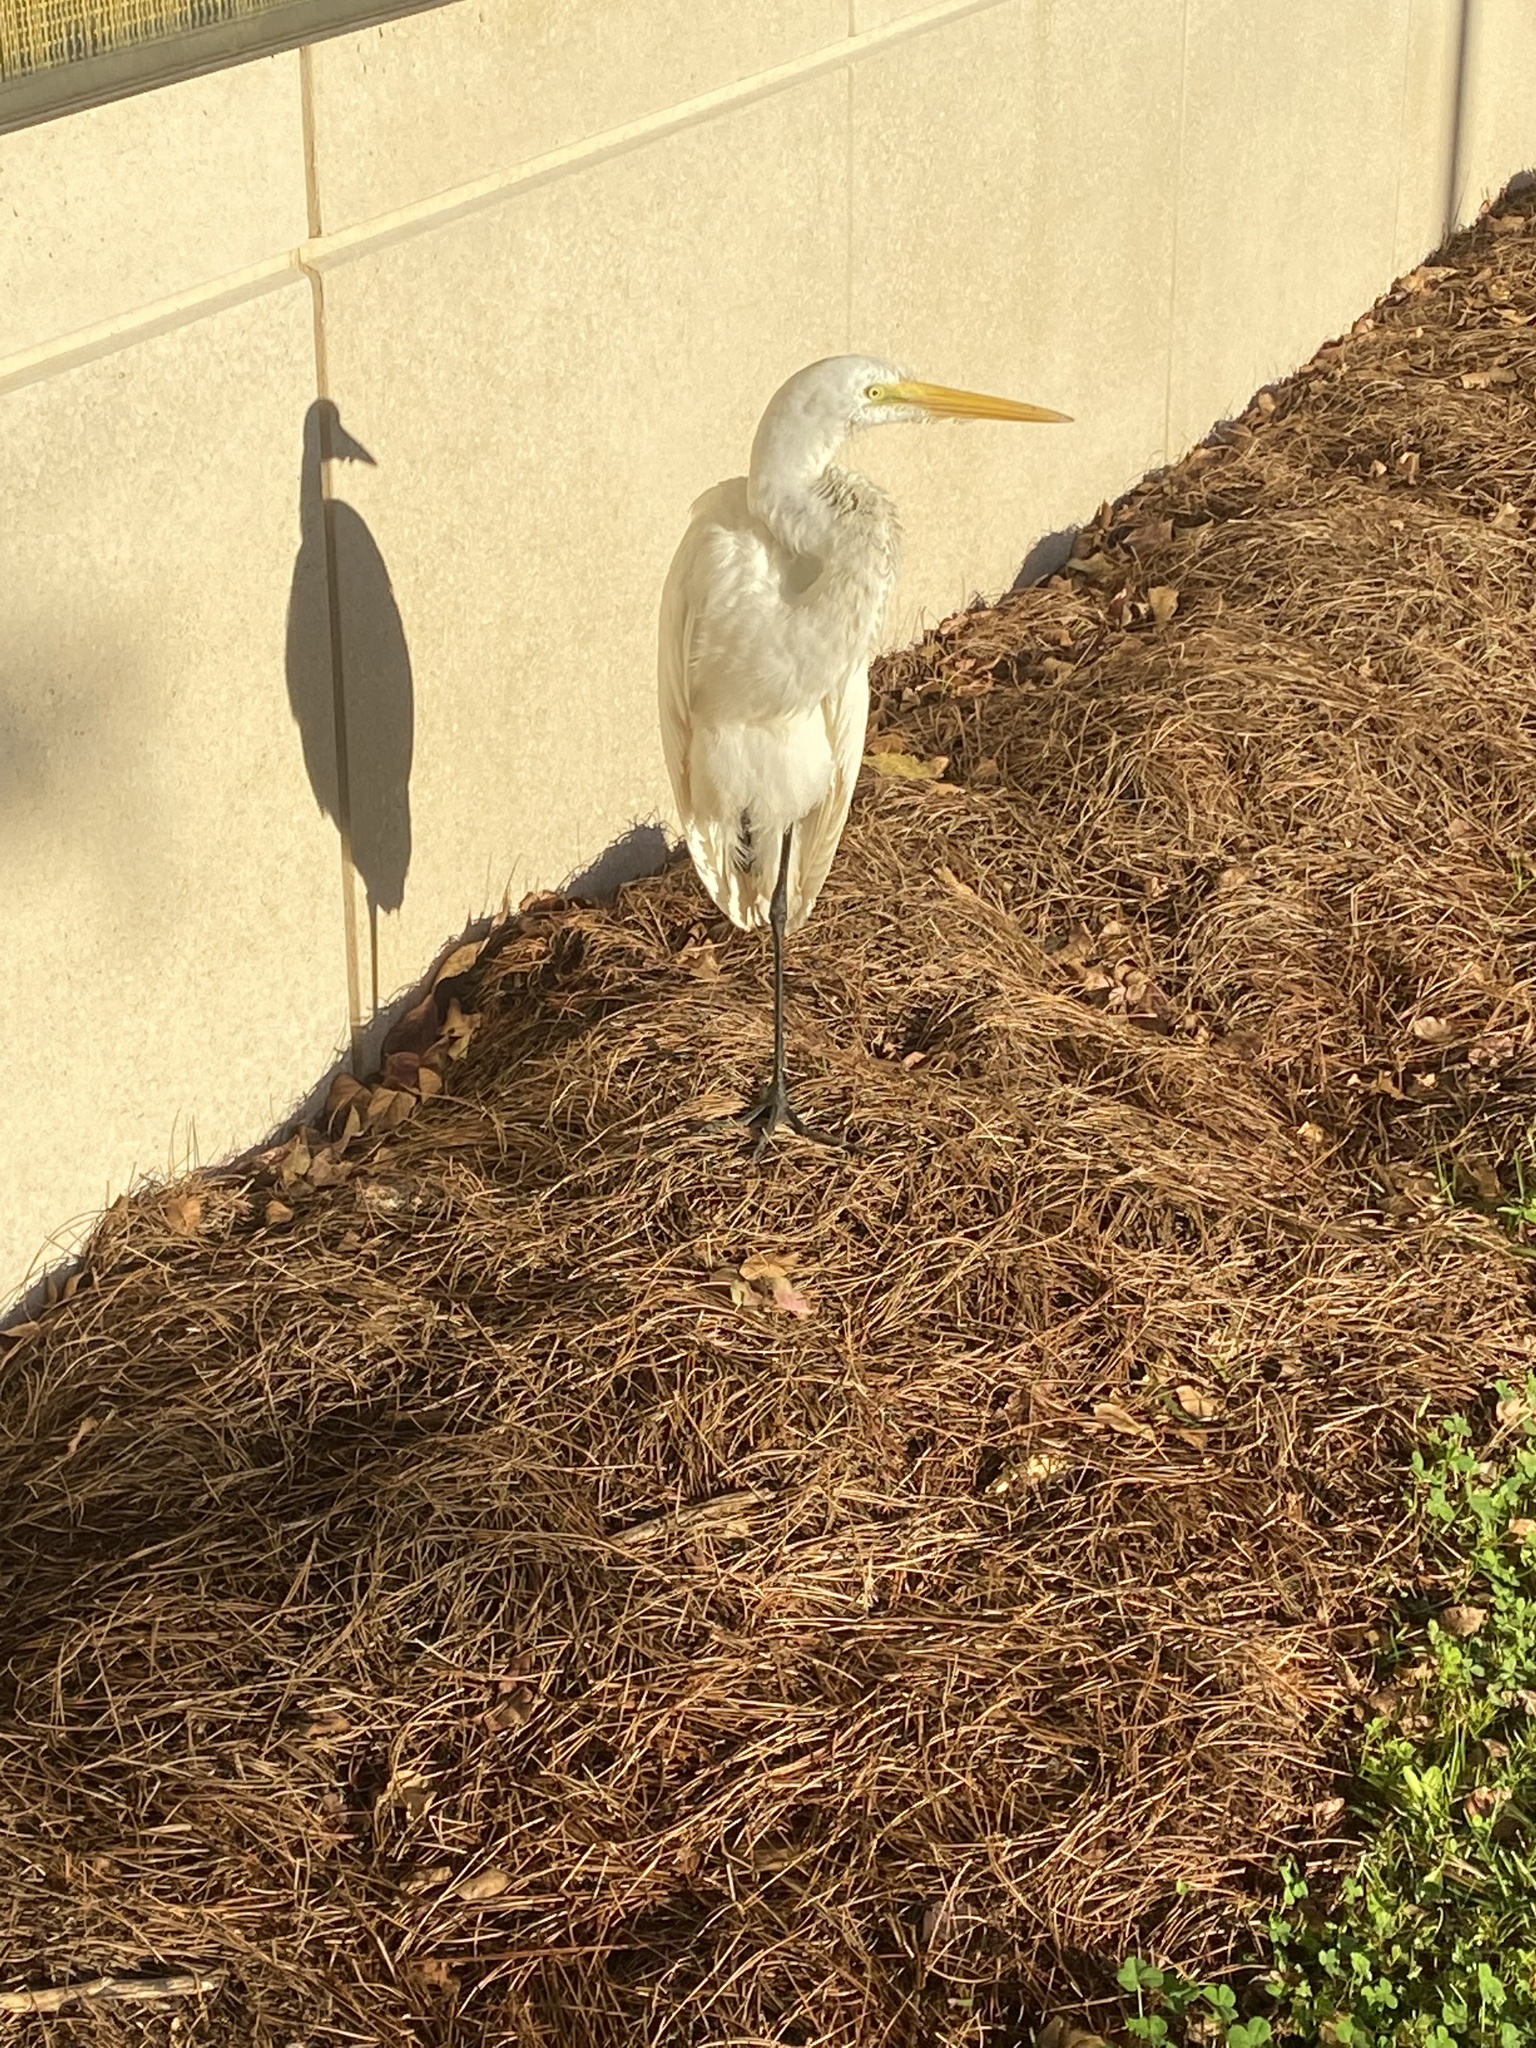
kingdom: Animalia
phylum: Chordata
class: Aves
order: Pelecaniformes
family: Ardeidae
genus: Ardea
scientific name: Ardea alba
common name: Great egret
